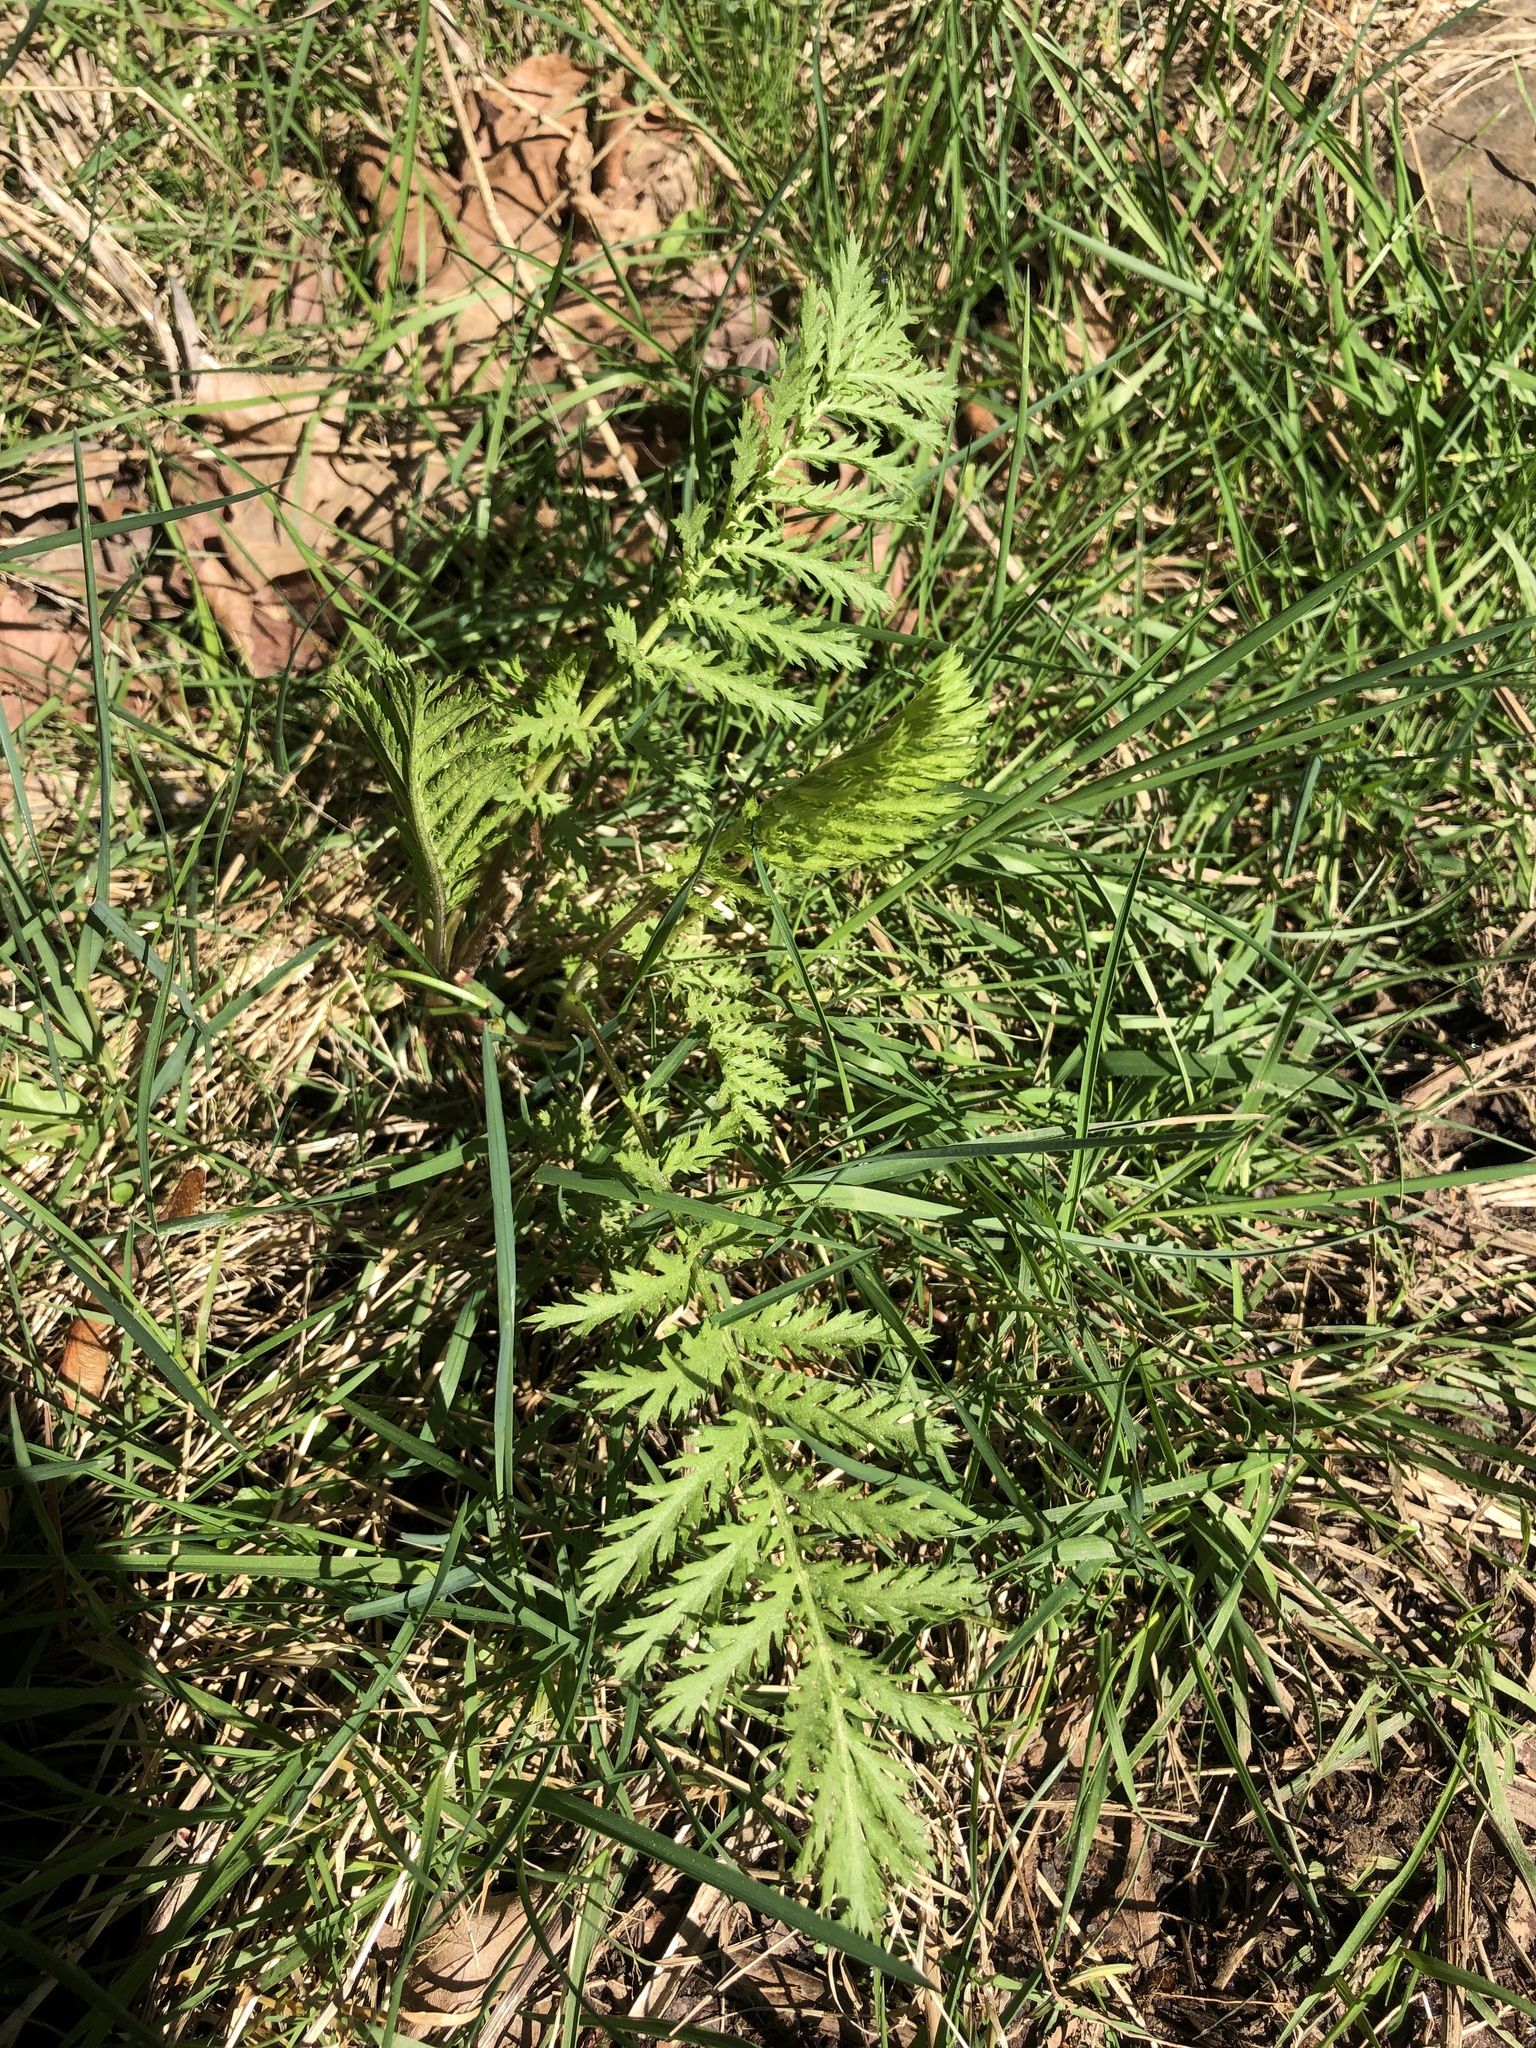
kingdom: Plantae
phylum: Tracheophyta
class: Magnoliopsida
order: Asterales
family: Asteraceae
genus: Tanacetum
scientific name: Tanacetum vulgare
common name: Common tansy
